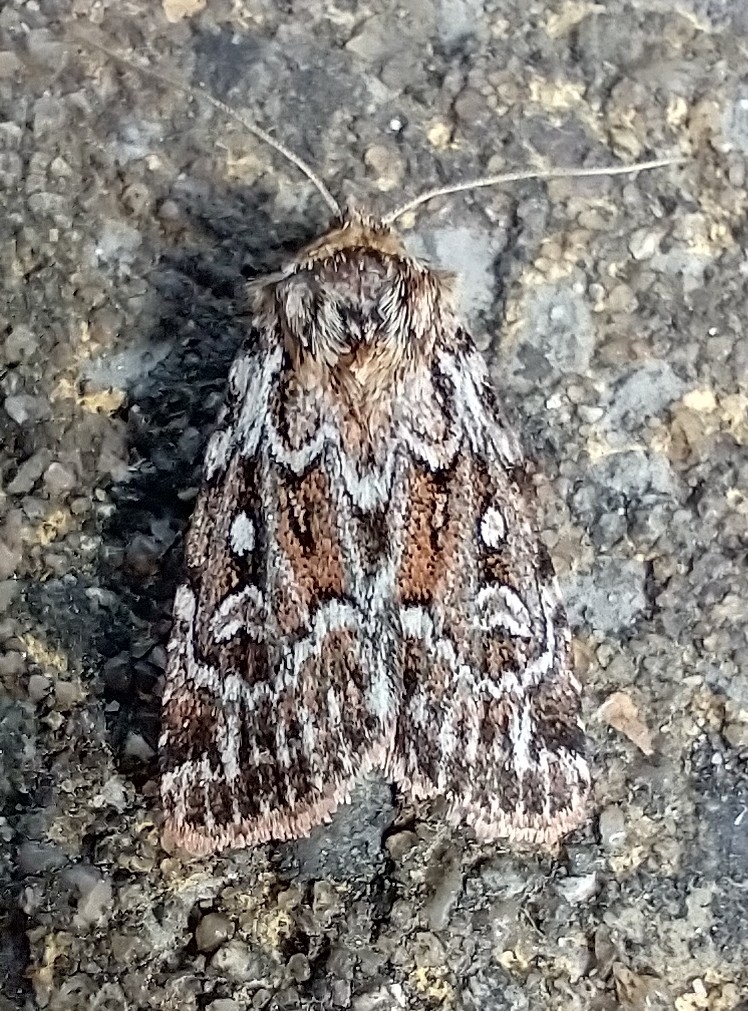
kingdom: Animalia
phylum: Arthropoda
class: Insecta
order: Lepidoptera
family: Noctuidae
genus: Lycophotia
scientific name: Lycophotia porphyrea
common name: True lover's knot
